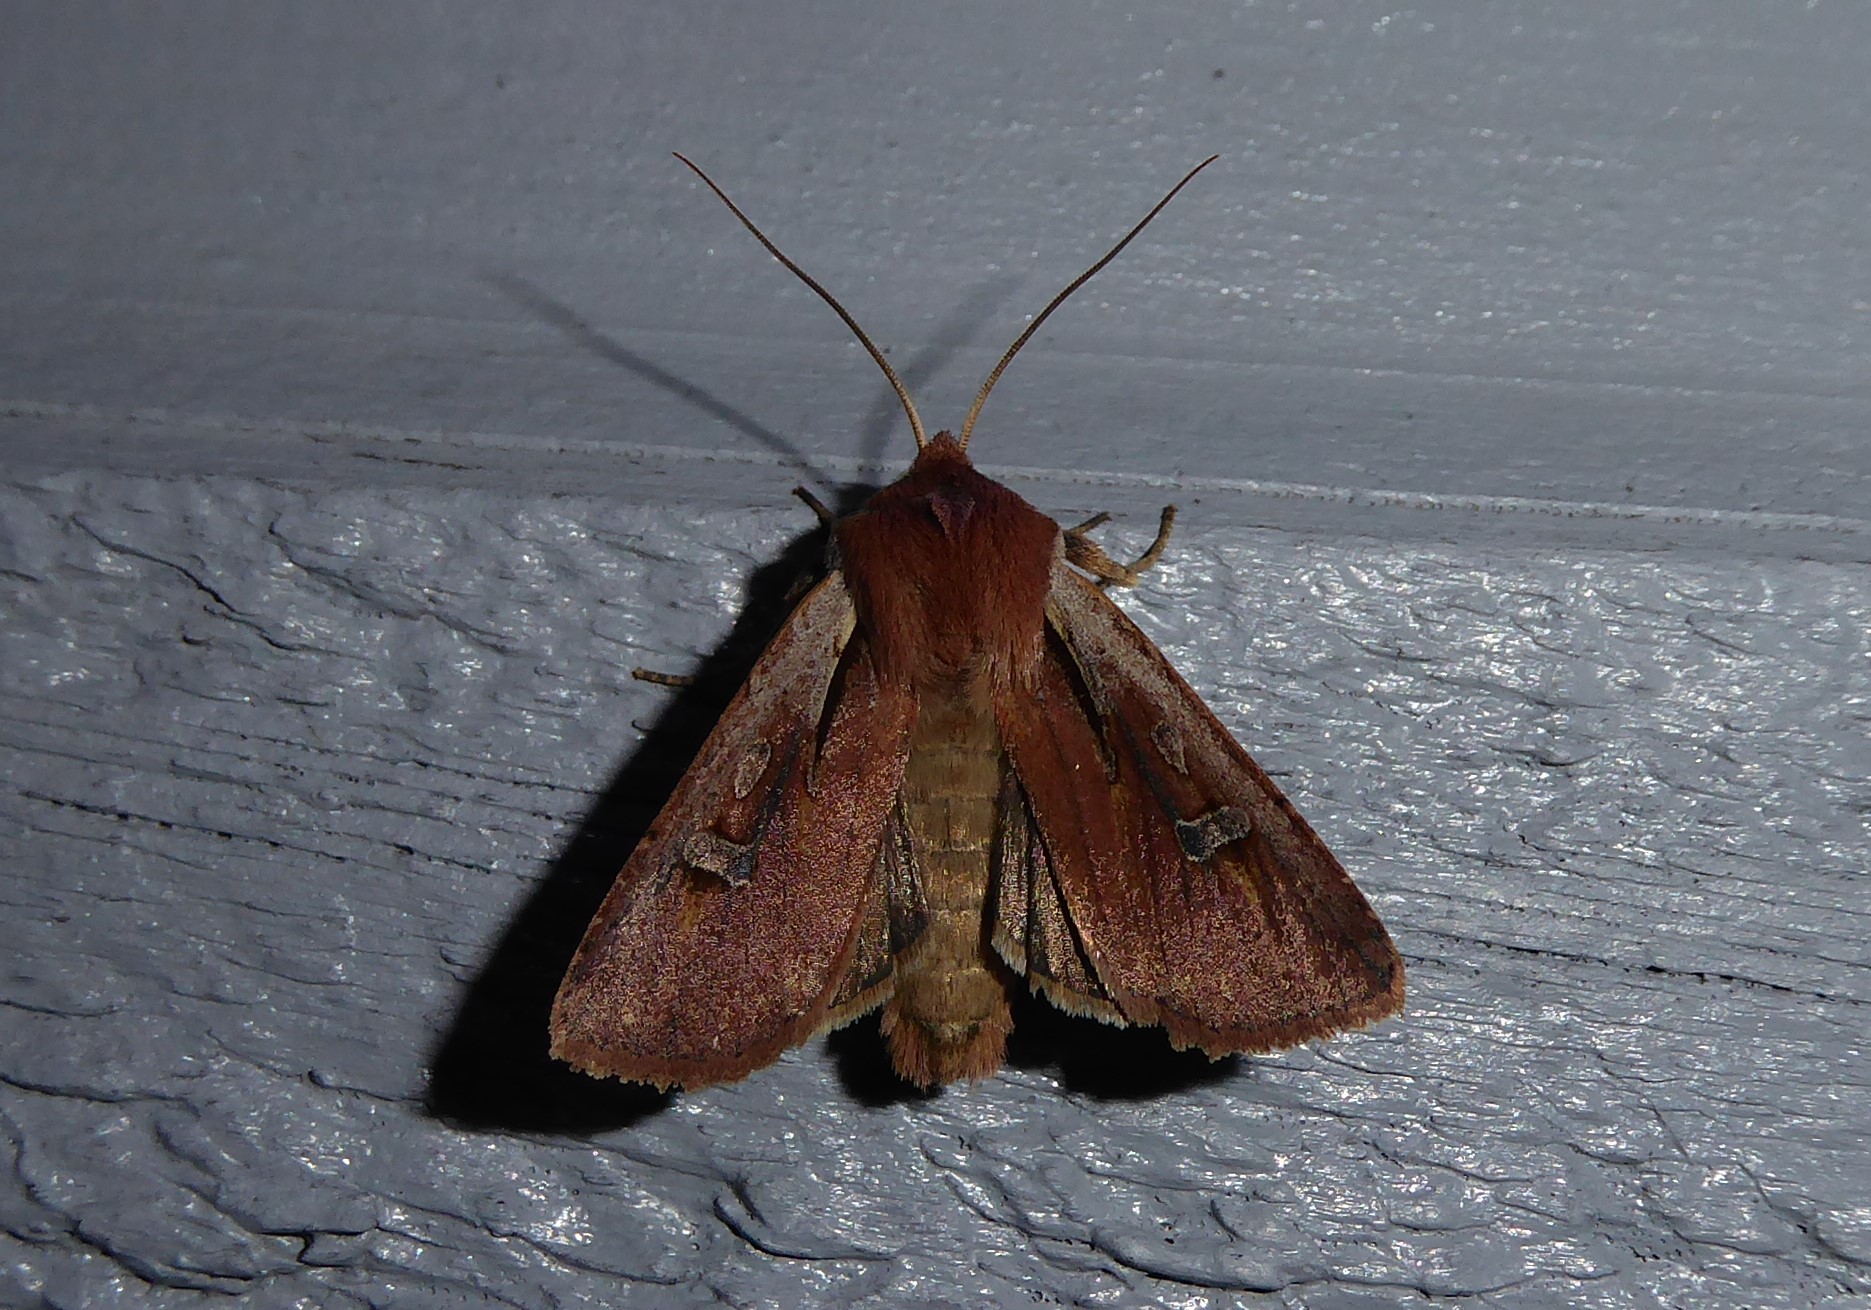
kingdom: Animalia
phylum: Arthropoda
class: Insecta
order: Lepidoptera
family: Noctuidae
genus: Ichneutica
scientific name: Ichneutica atristriga
